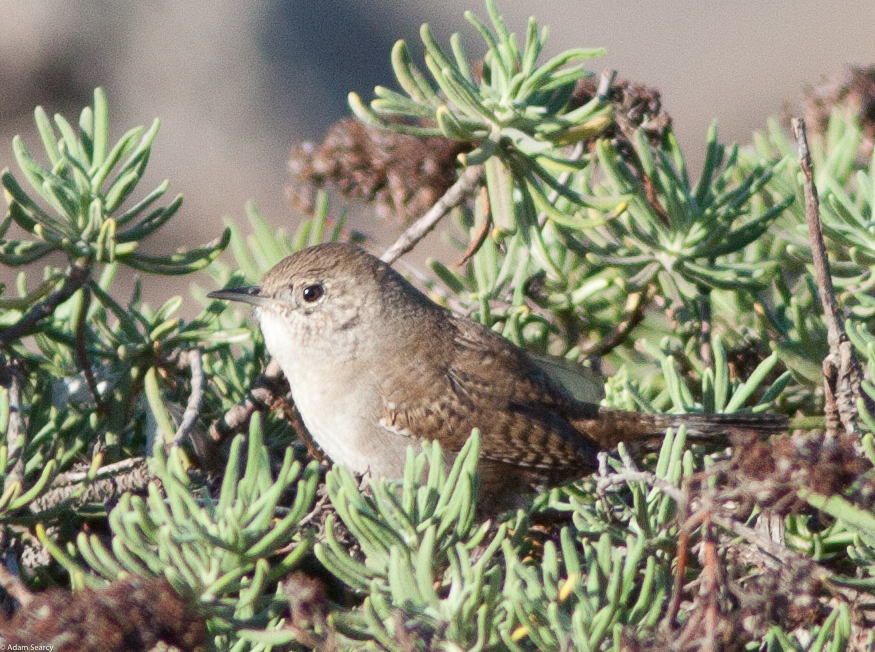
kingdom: Animalia
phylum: Chordata
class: Aves
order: Passeriformes
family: Troglodytidae
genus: Troglodytes
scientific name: Troglodytes aedon
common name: House wren
